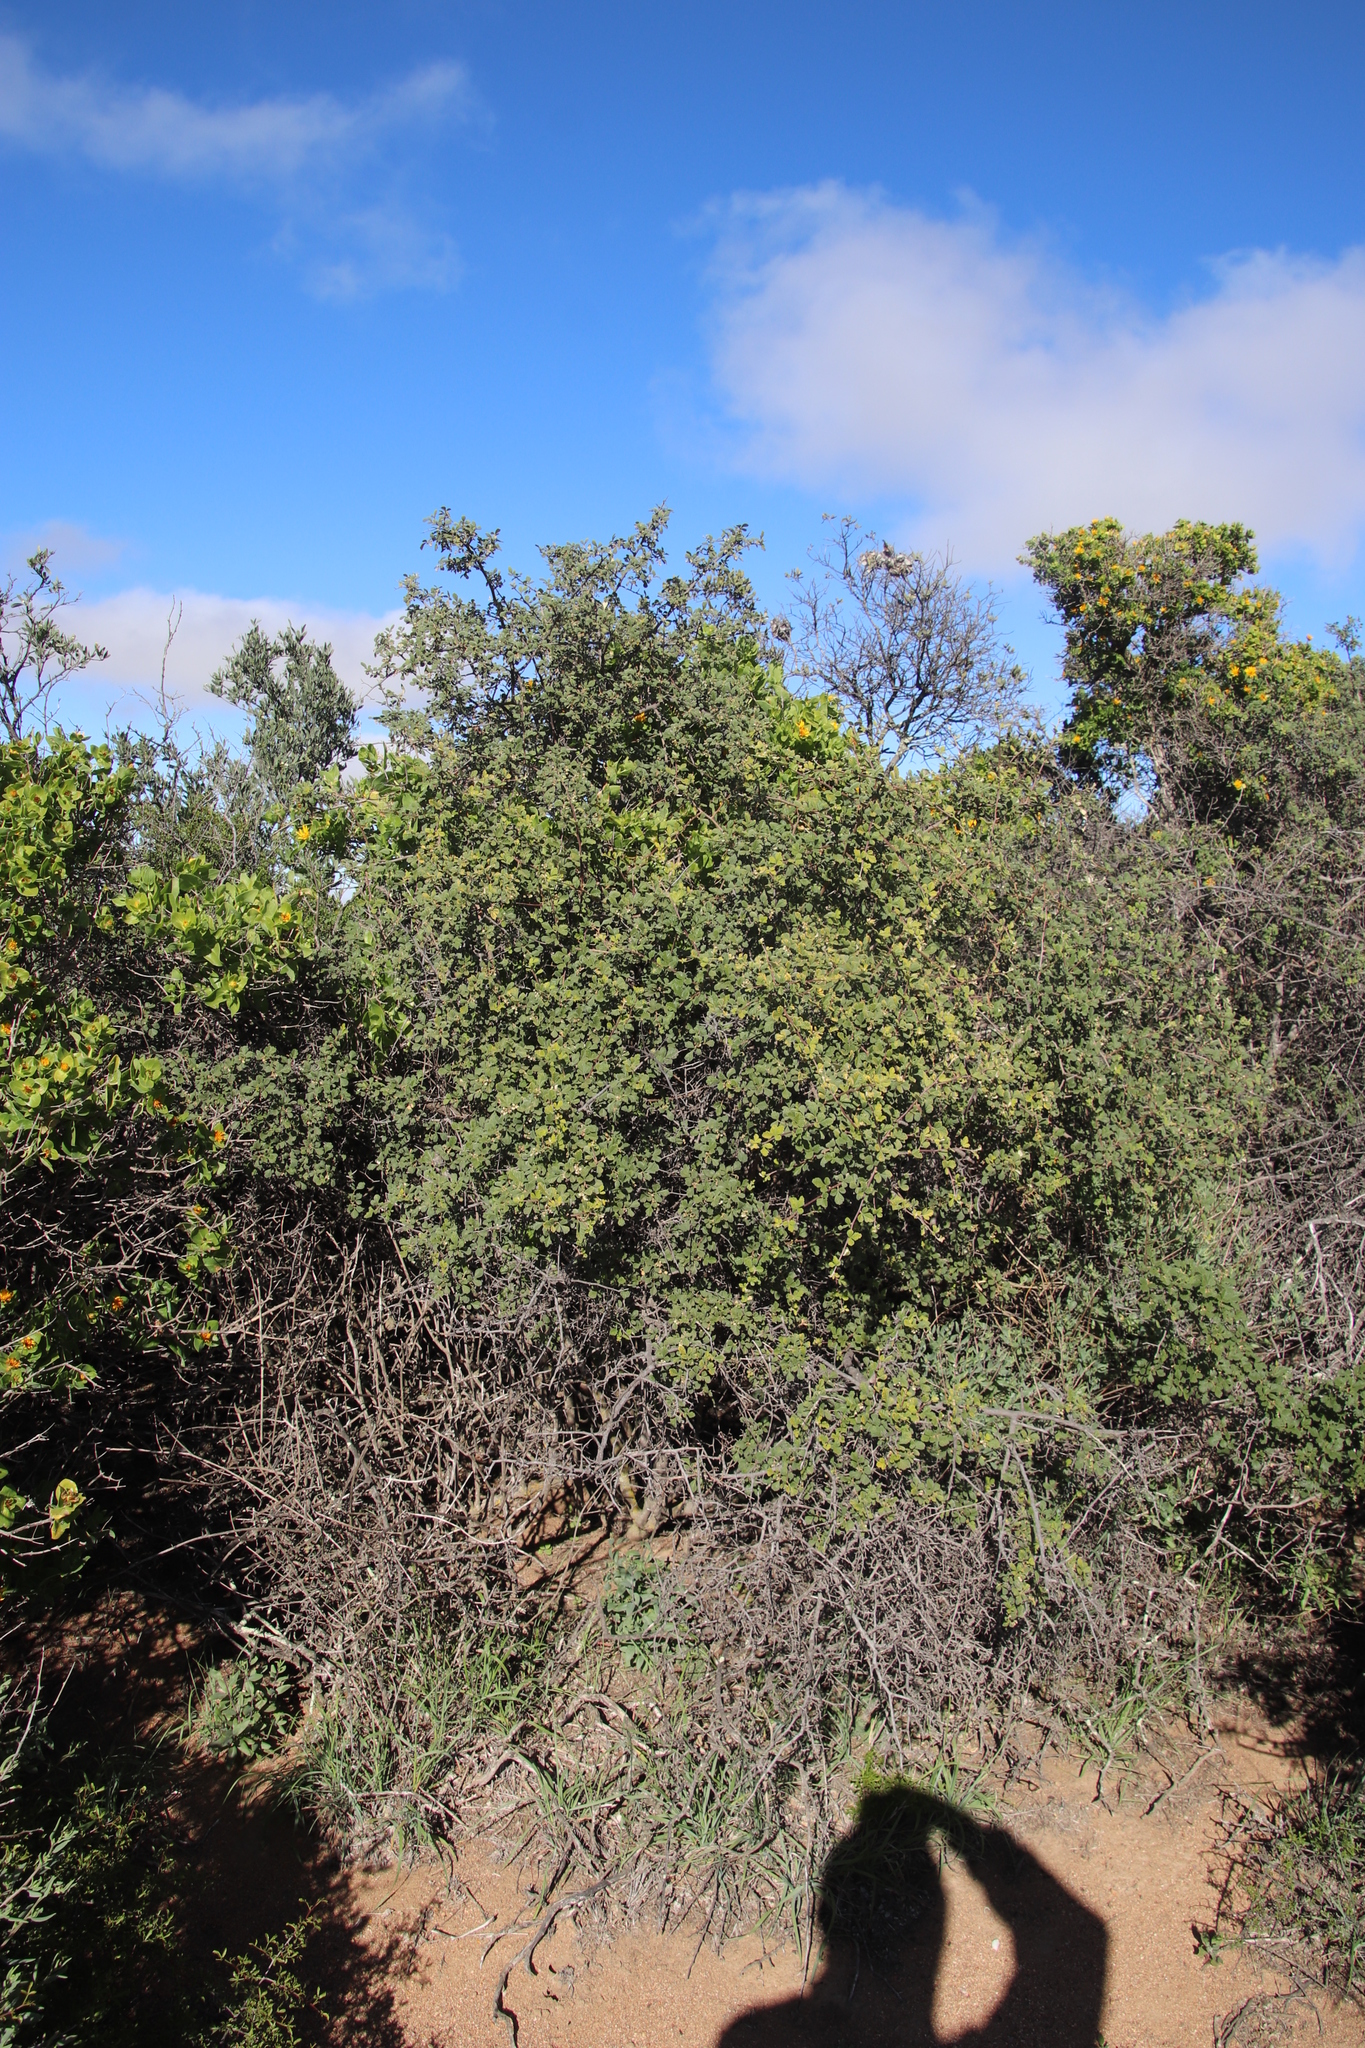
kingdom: Plantae
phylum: Tracheophyta
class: Magnoliopsida
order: Sapindales
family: Anacardiaceae
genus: Searsia
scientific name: Searsia incisa
